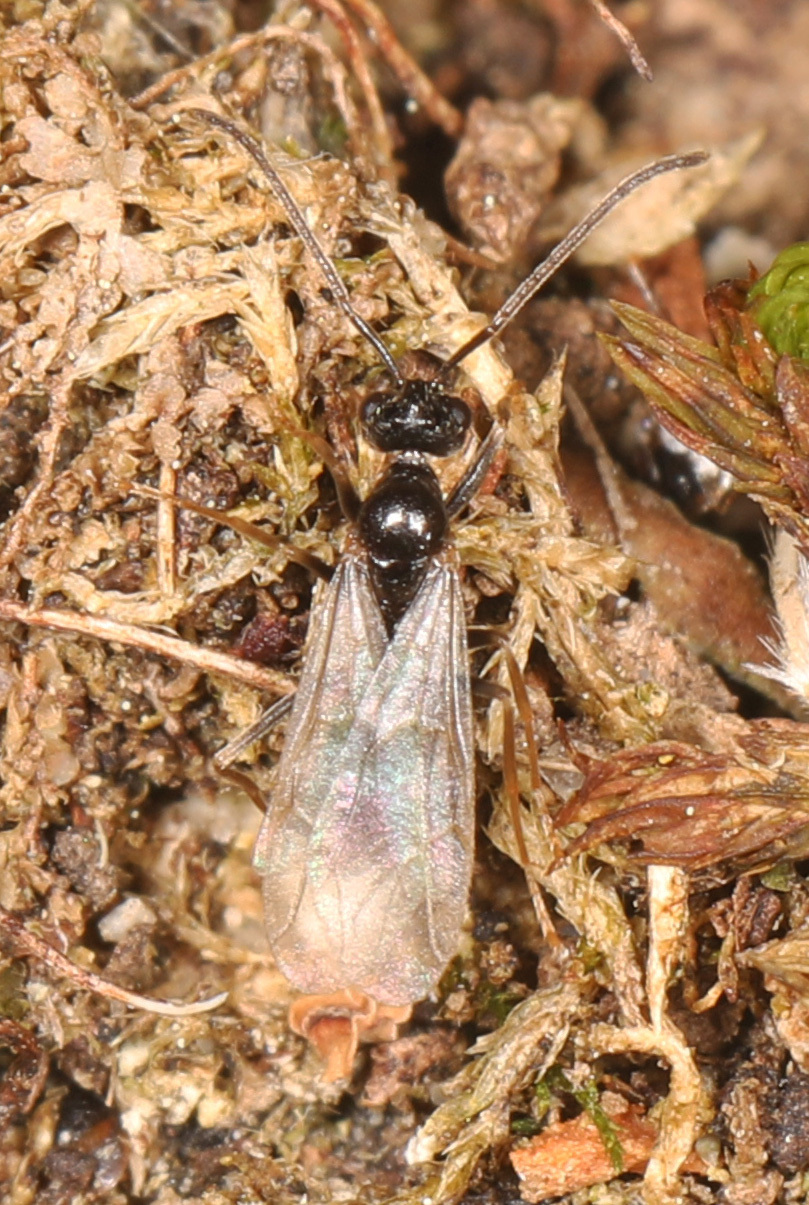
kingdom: Animalia
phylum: Arthropoda
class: Insecta
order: Hymenoptera
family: Formicidae
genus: Prenolepis
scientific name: Prenolepis imparis
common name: Small honey ant
